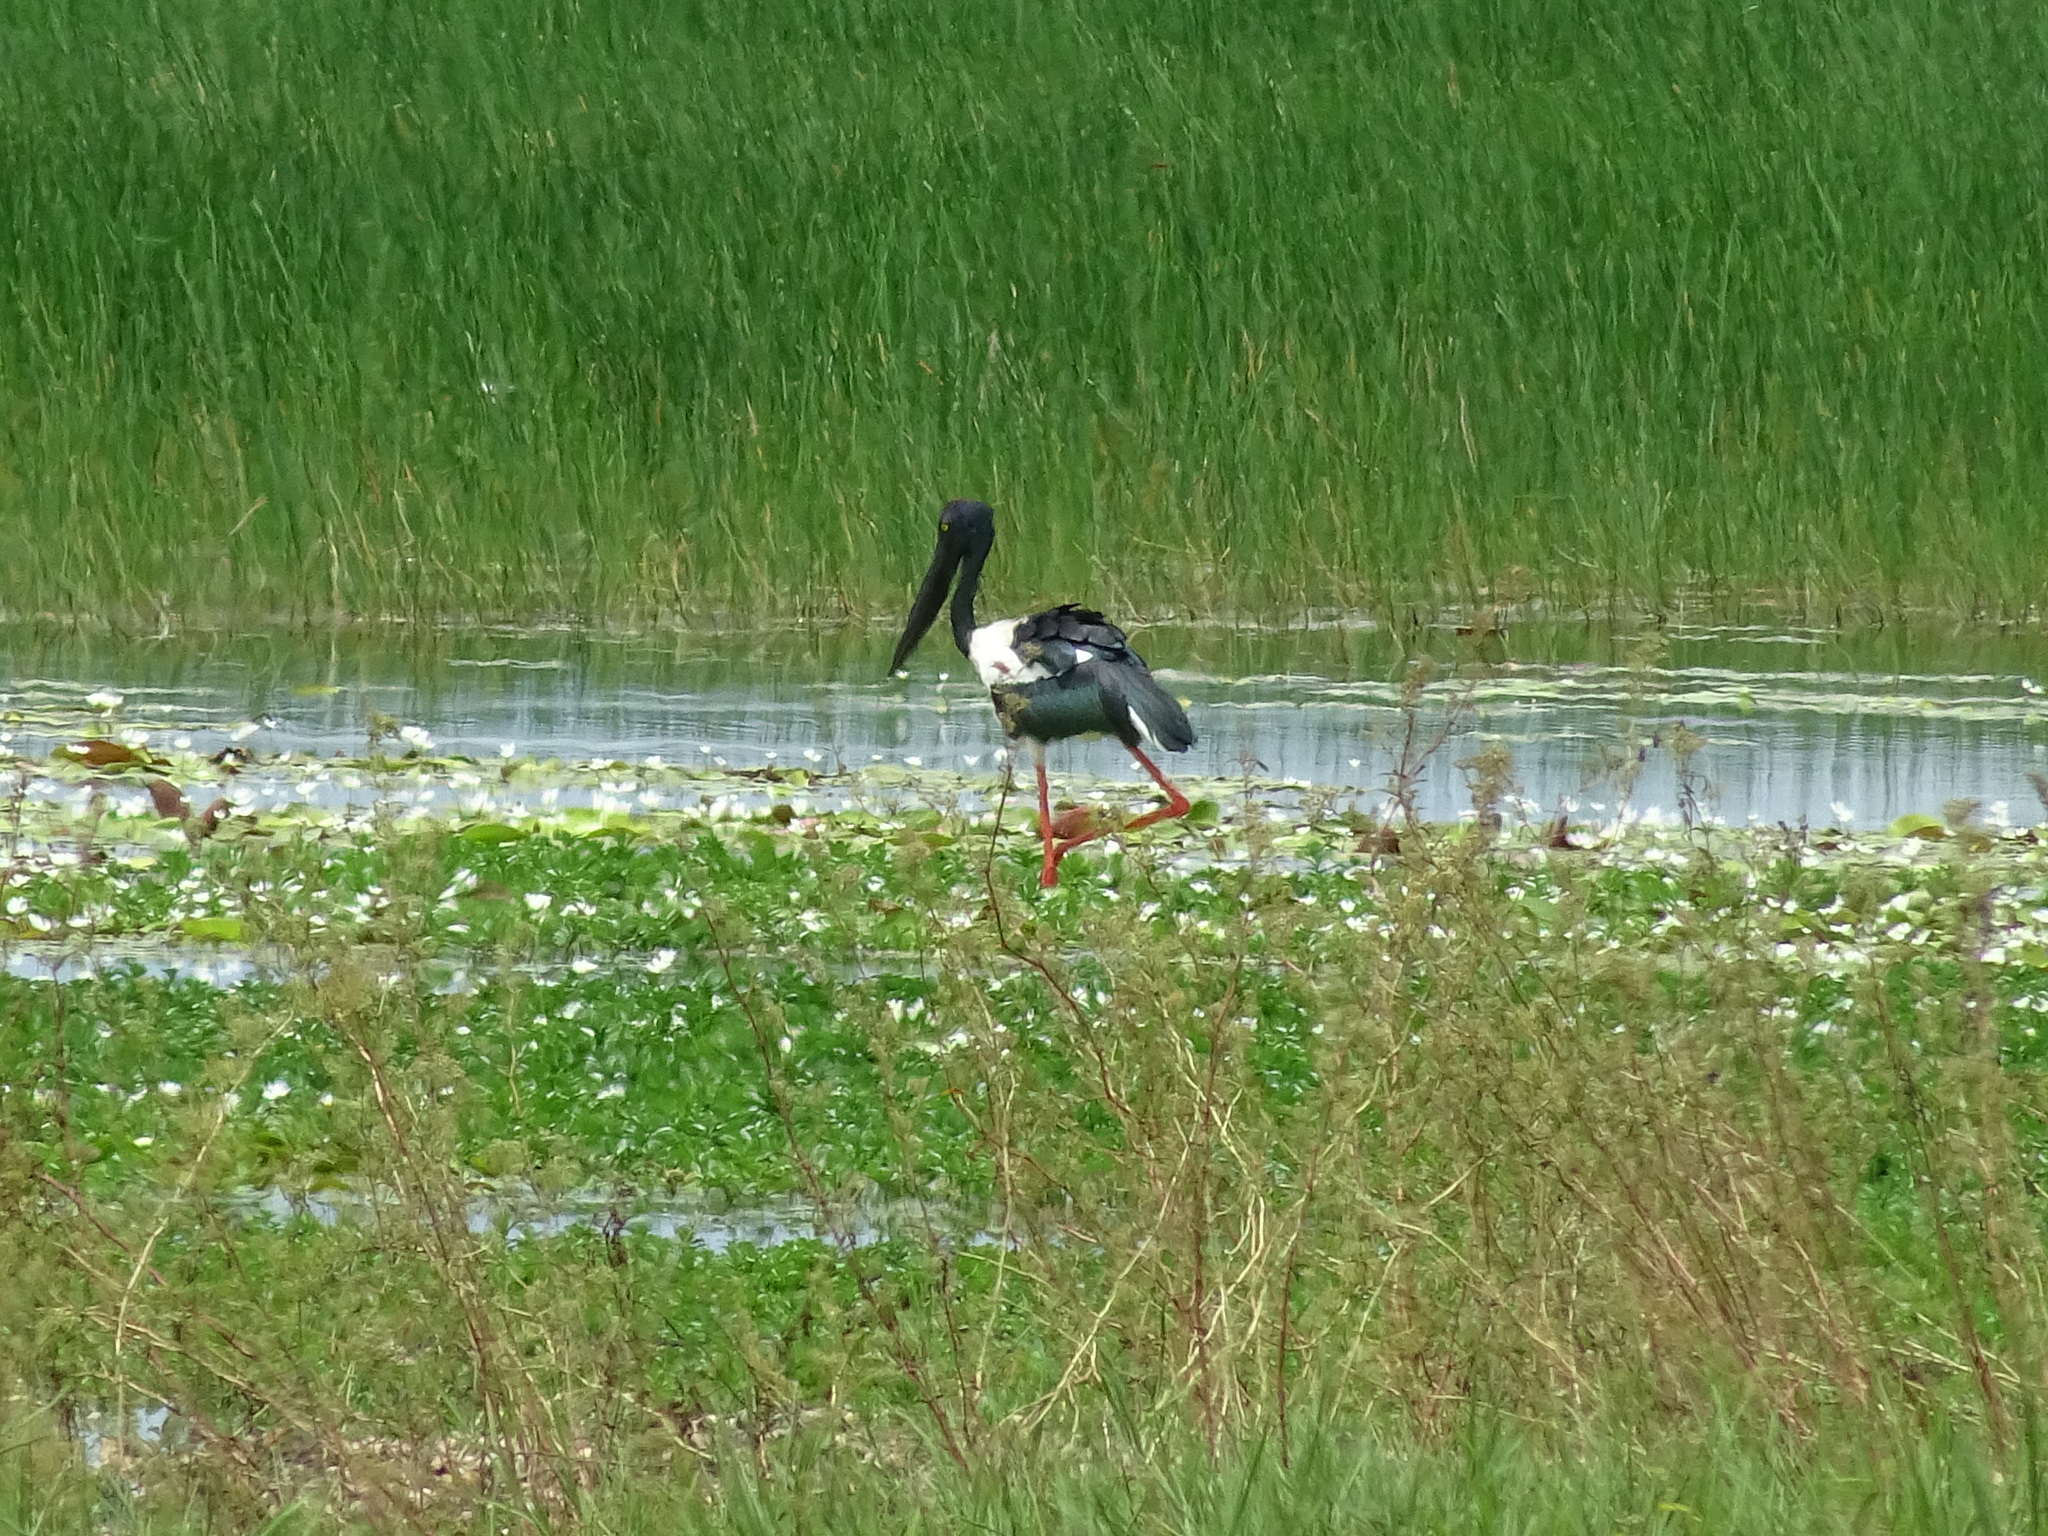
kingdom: Animalia
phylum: Chordata
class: Aves
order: Ciconiiformes
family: Ciconiidae
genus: Ephippiorhynchus
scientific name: Ephippiorhynchus asiaticus
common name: Black-necked stork
